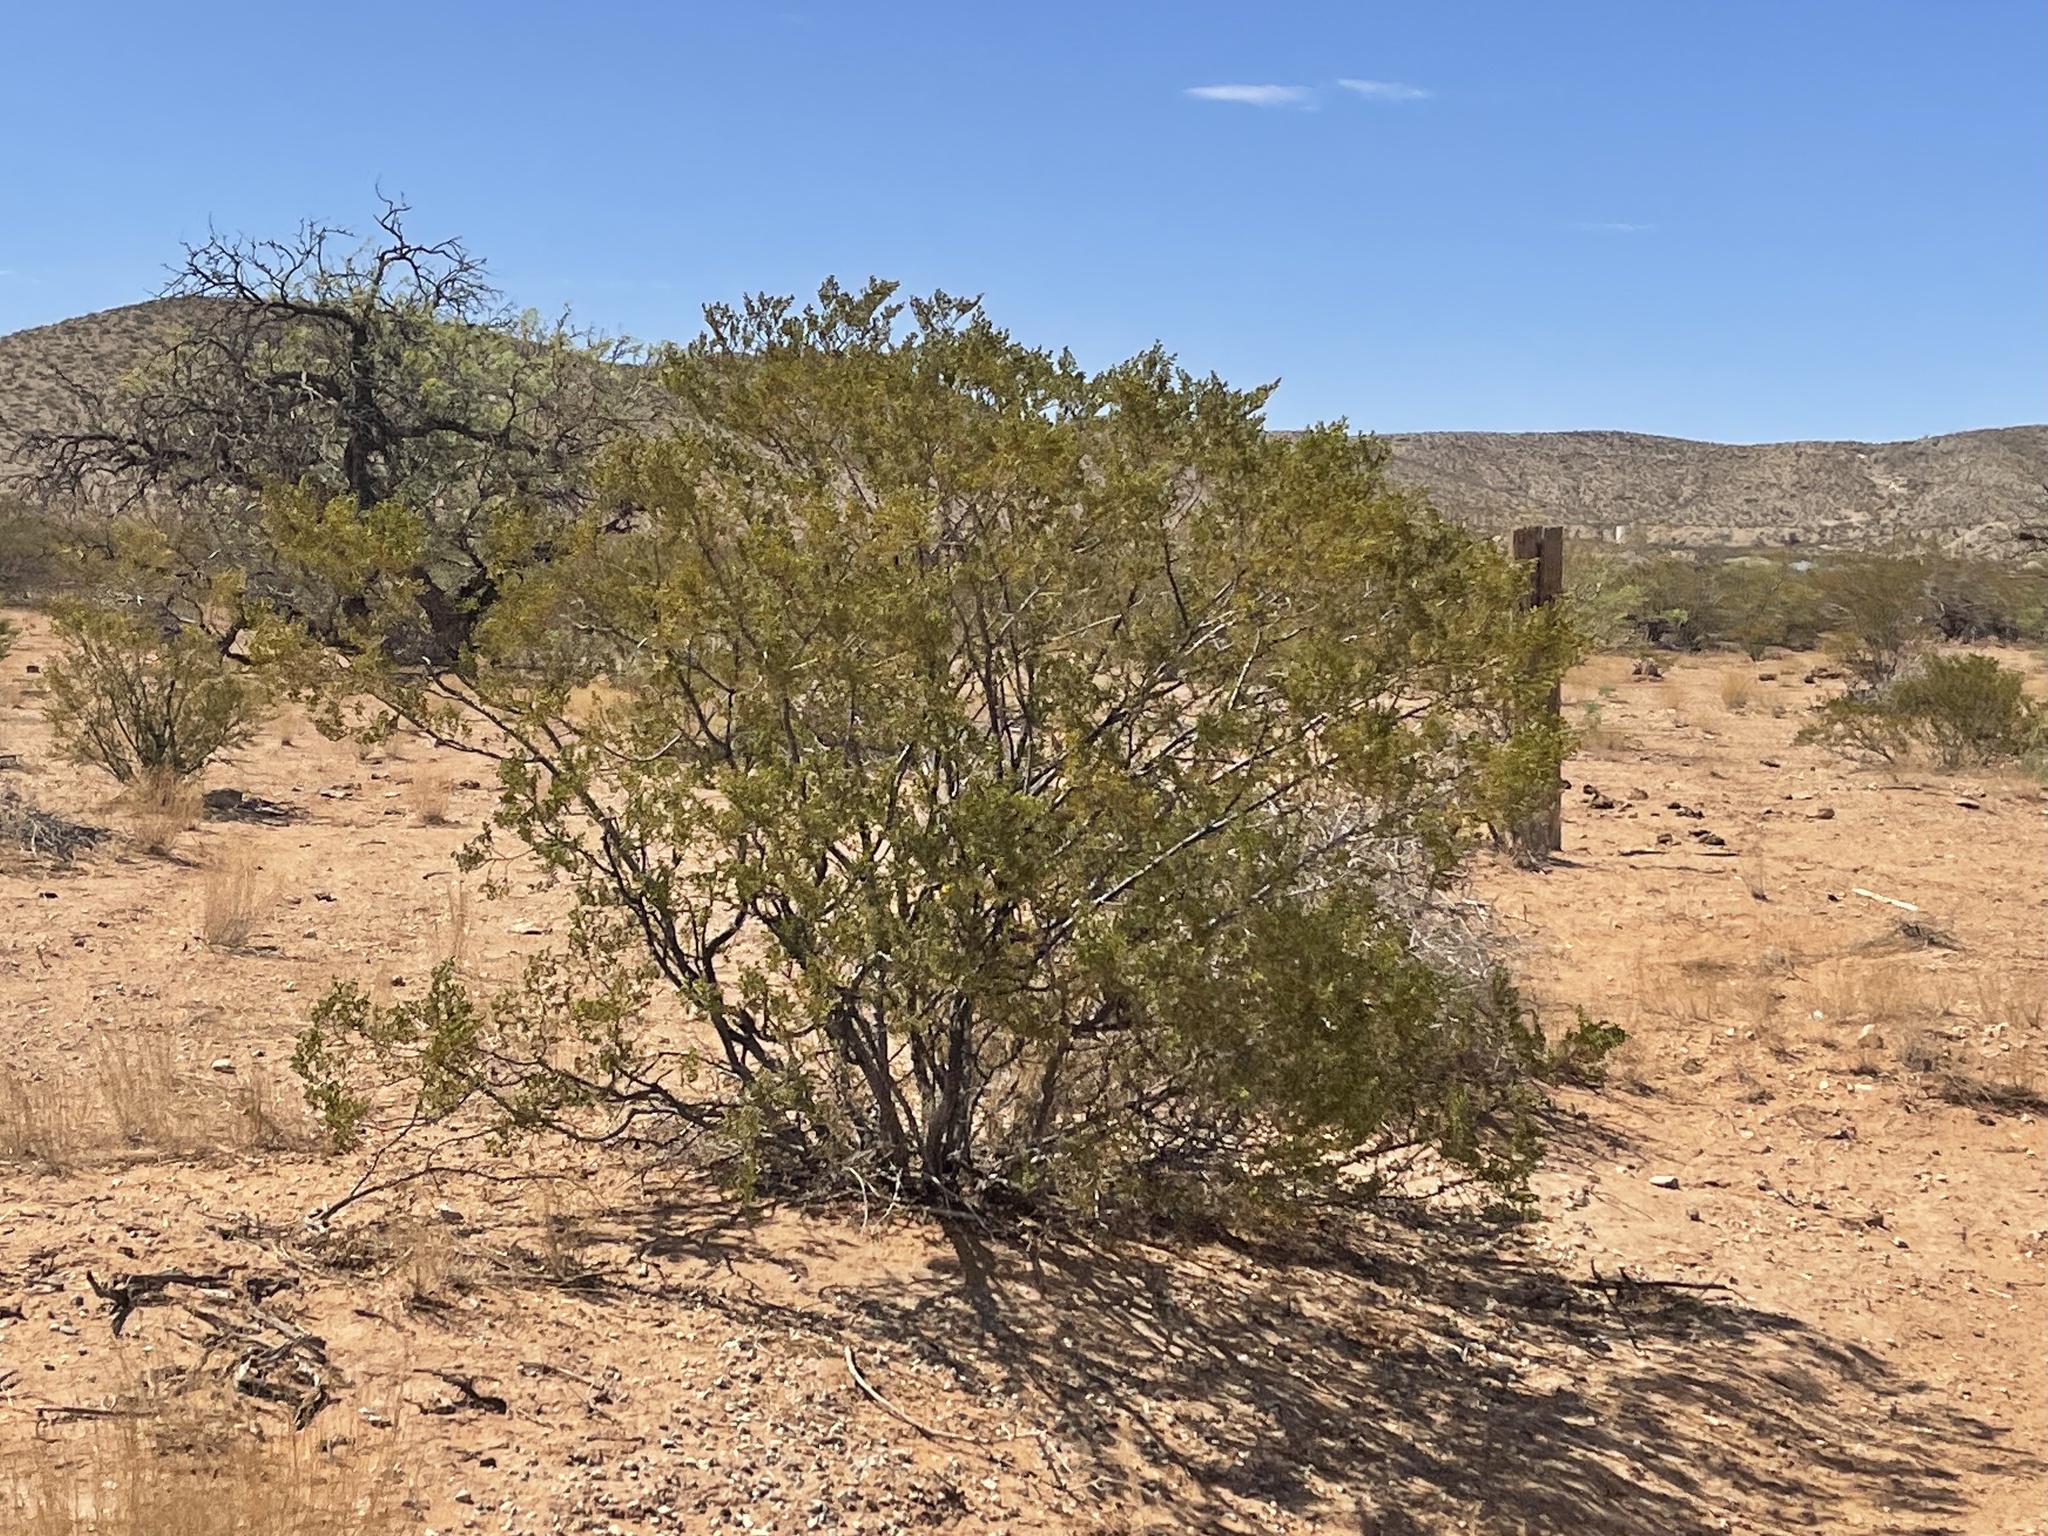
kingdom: Plantae
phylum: Tracheophyta
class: Magnoliopsida
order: Zygophyllales
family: Zygophyllaceae
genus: Larrea
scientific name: Larrea tridentata
